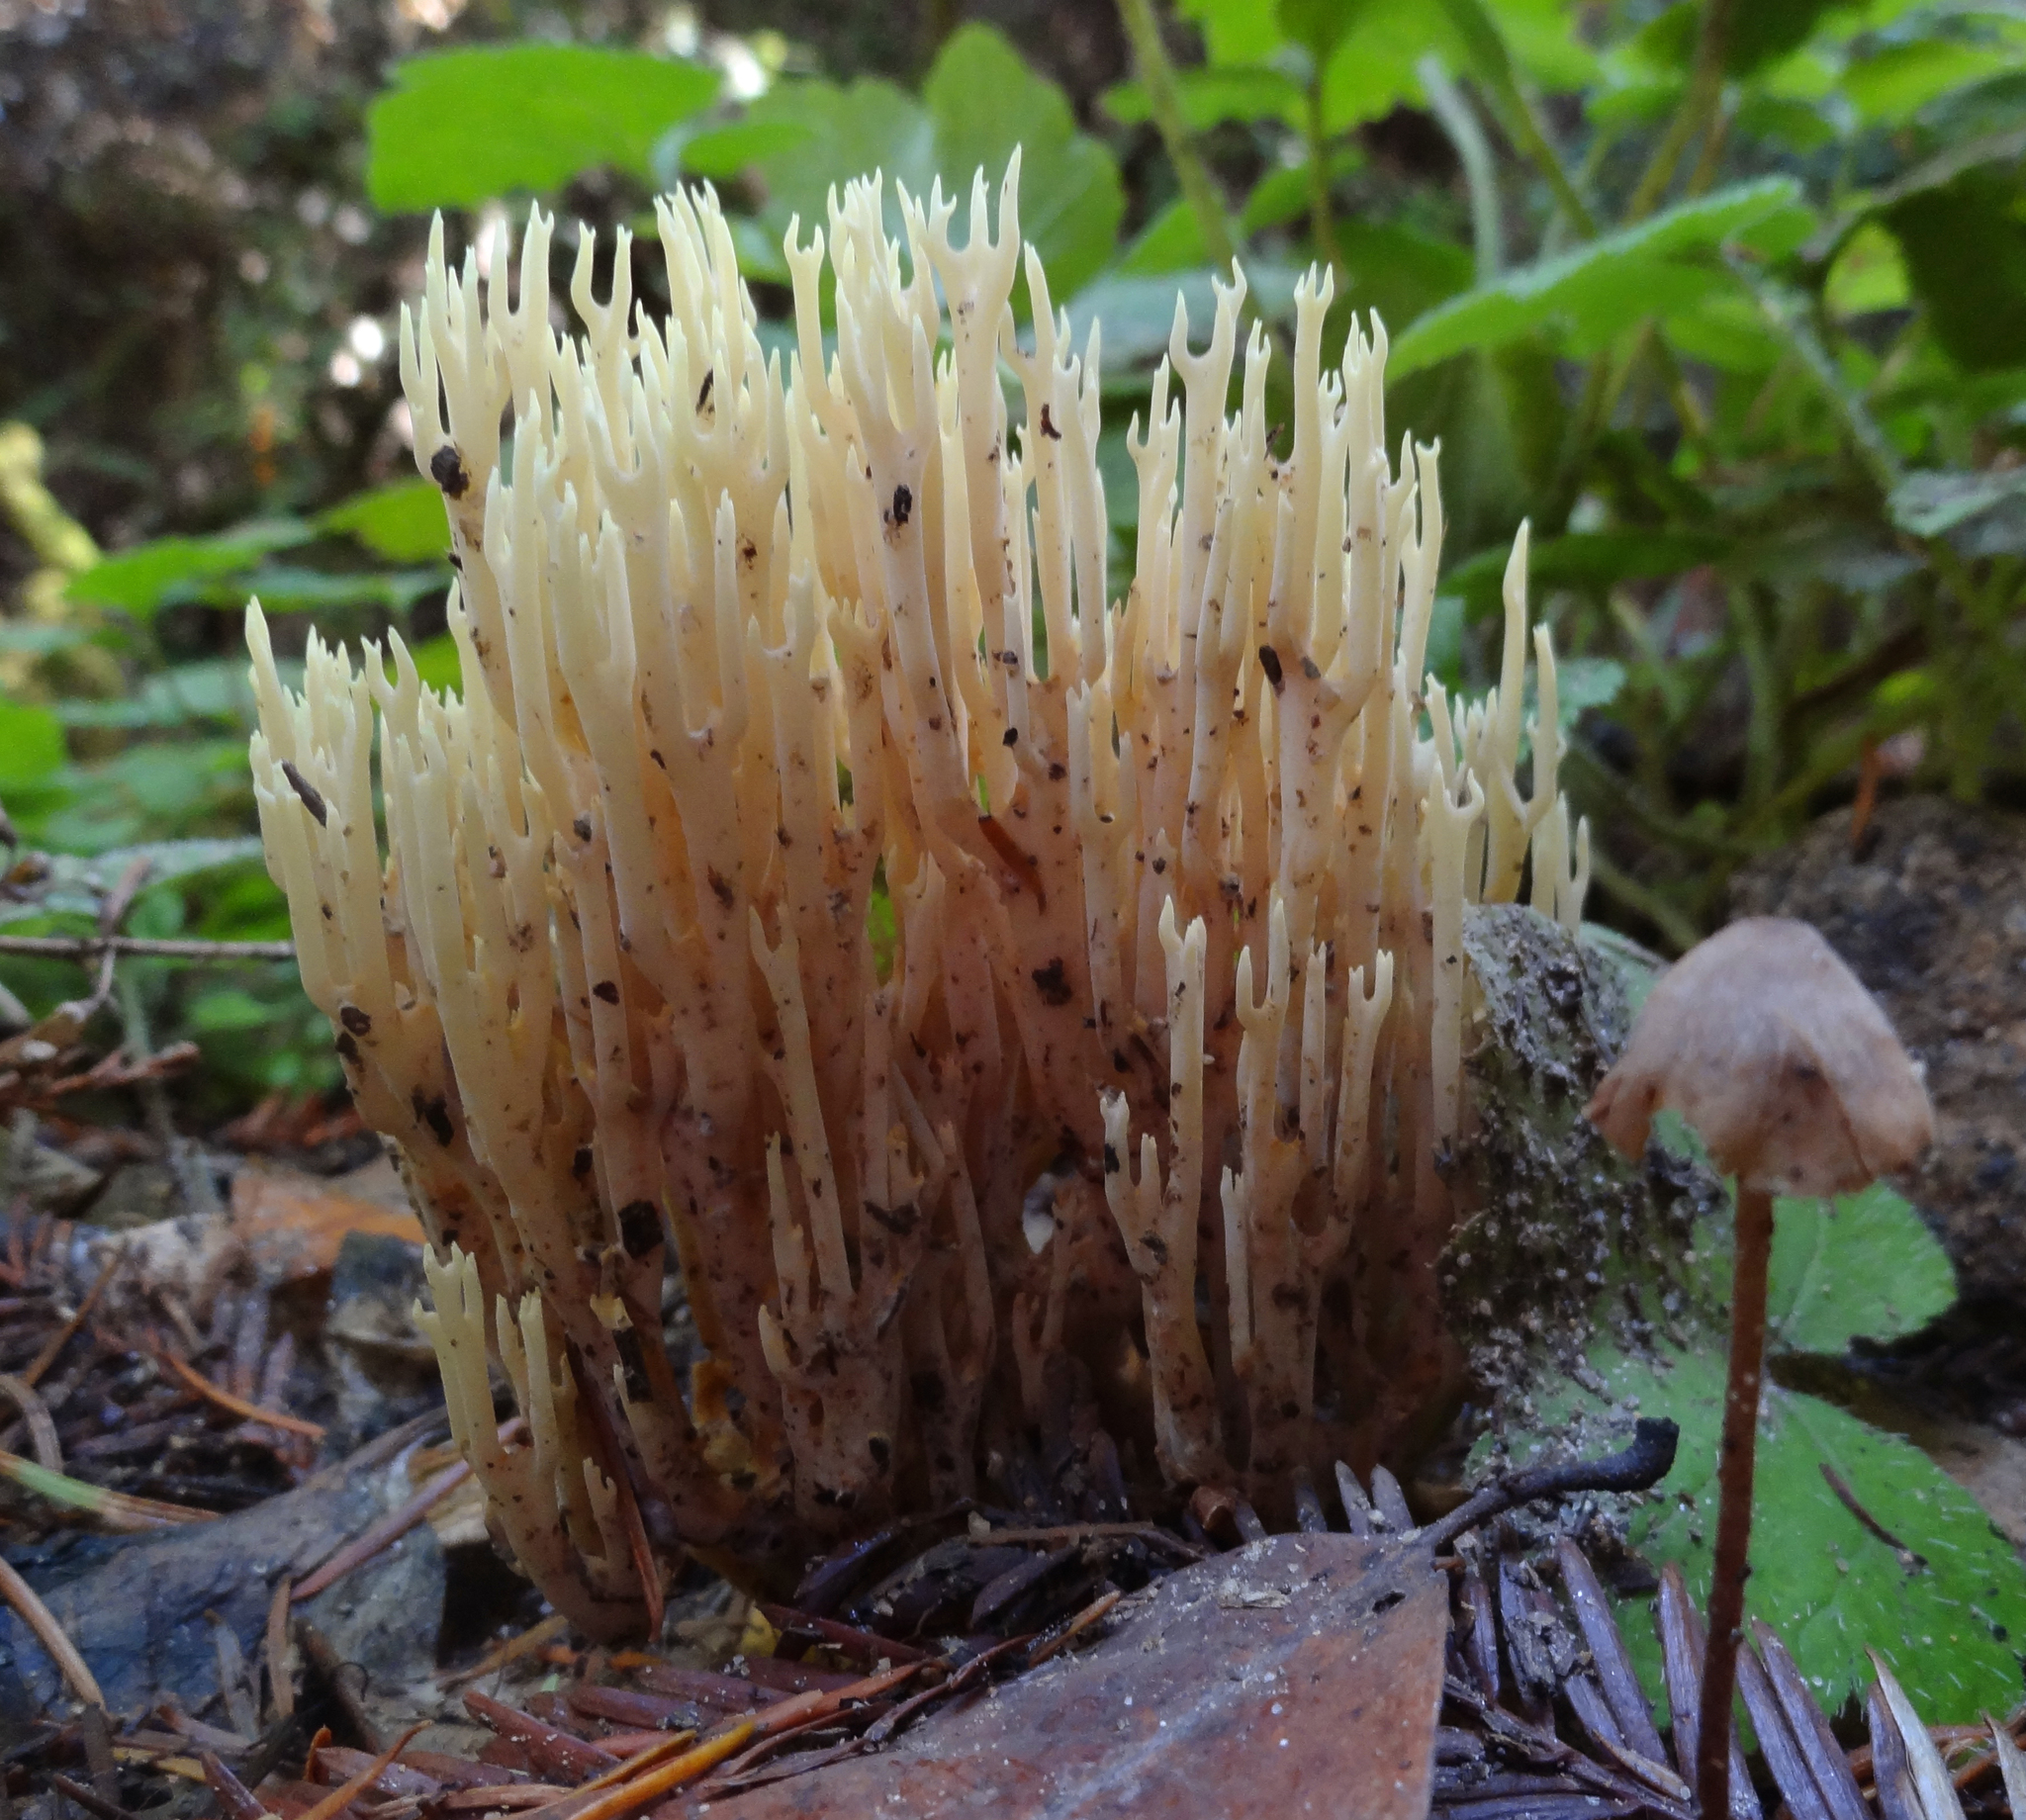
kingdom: Fungi
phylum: Basidiomycota
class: Agaricomycetes
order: Gomphales
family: Gomphaceae
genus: Ramaria
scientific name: Ramaria stricta
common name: Upright coral
